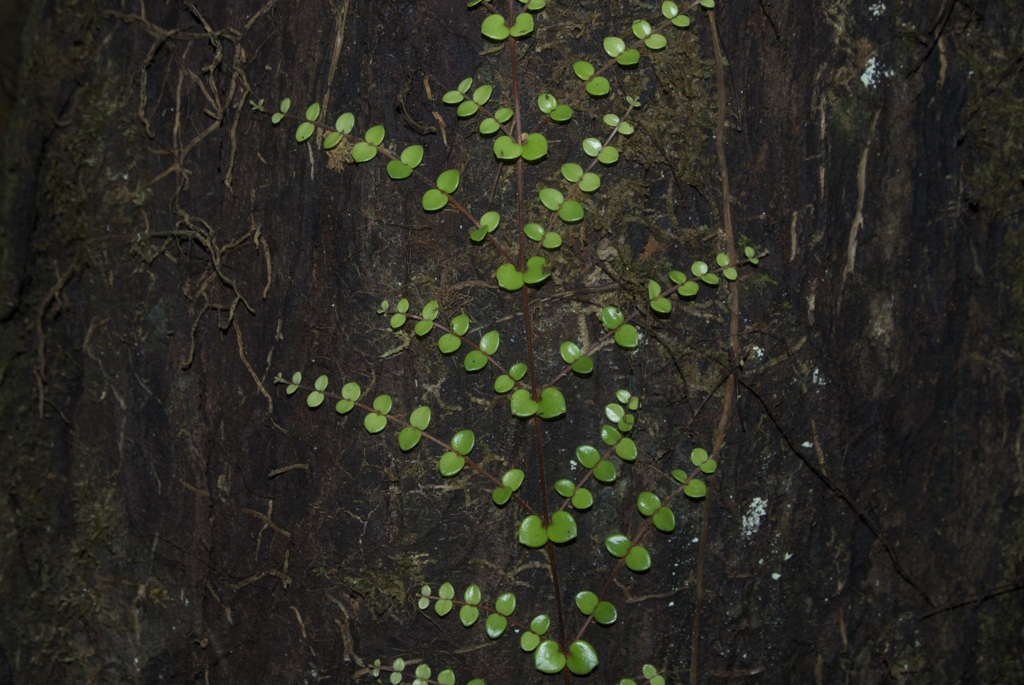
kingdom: Plantae
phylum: Tracheophyta
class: Magnoliopsida
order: Myrtales
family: Myrtaceae
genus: Metrosideros
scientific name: Metrosideros perforata
